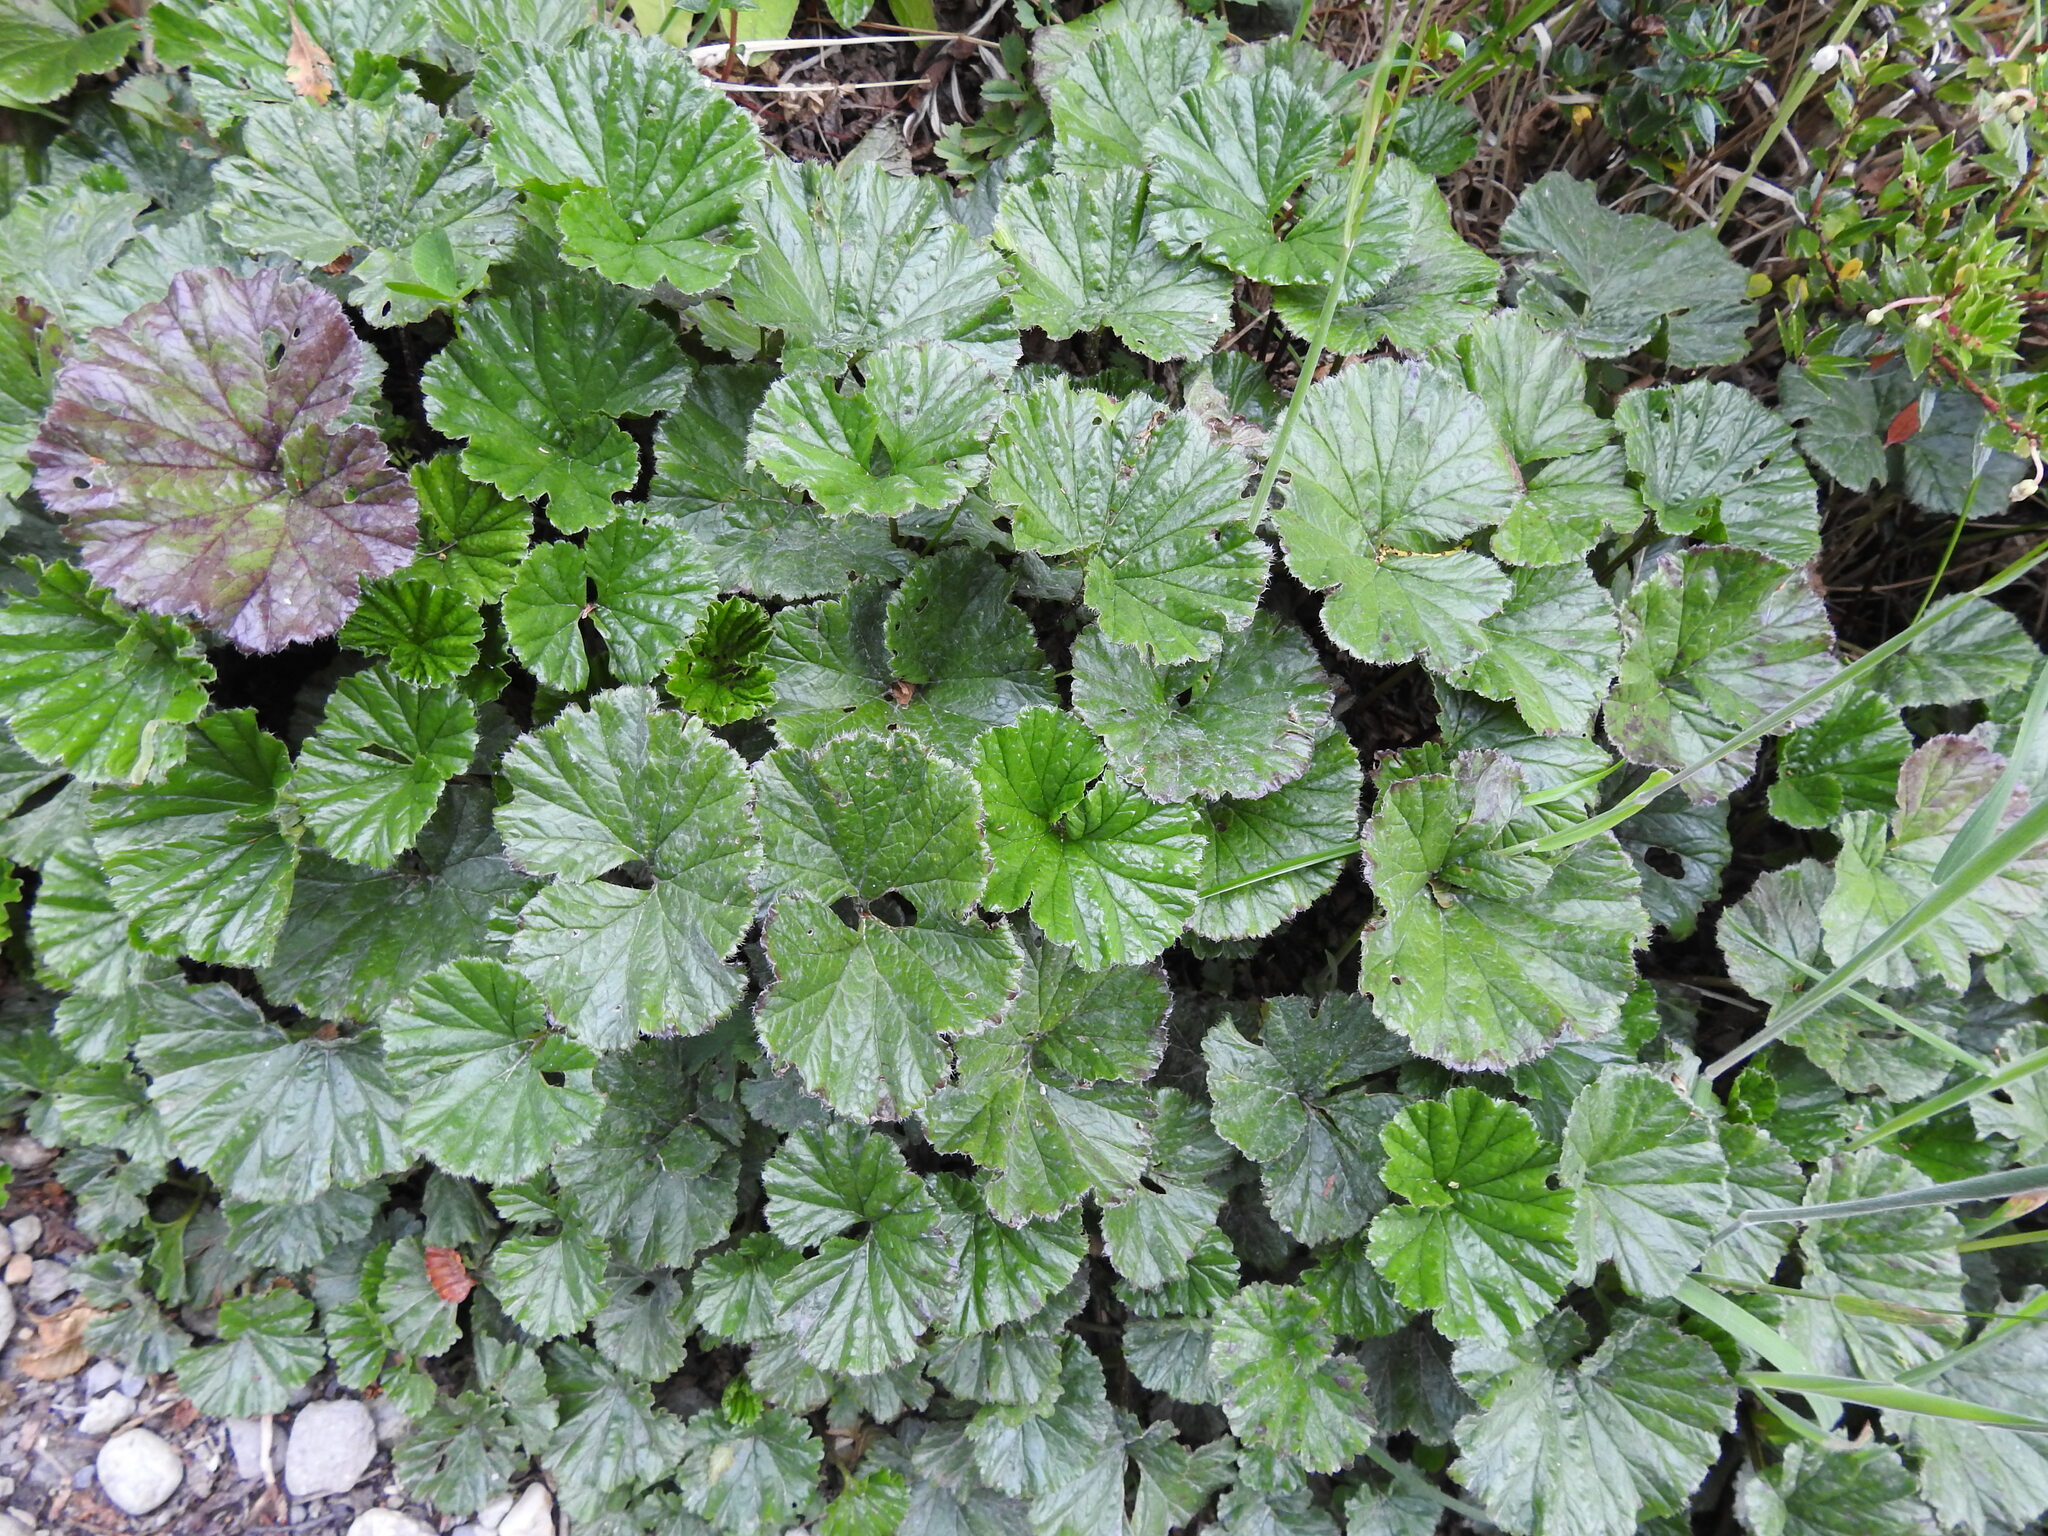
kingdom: Plantae
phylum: Tracheophyta
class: Magnoliopsida
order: Gunnerales
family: Gunneraceae
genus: Gunnera
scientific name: Gunnera magellanica
